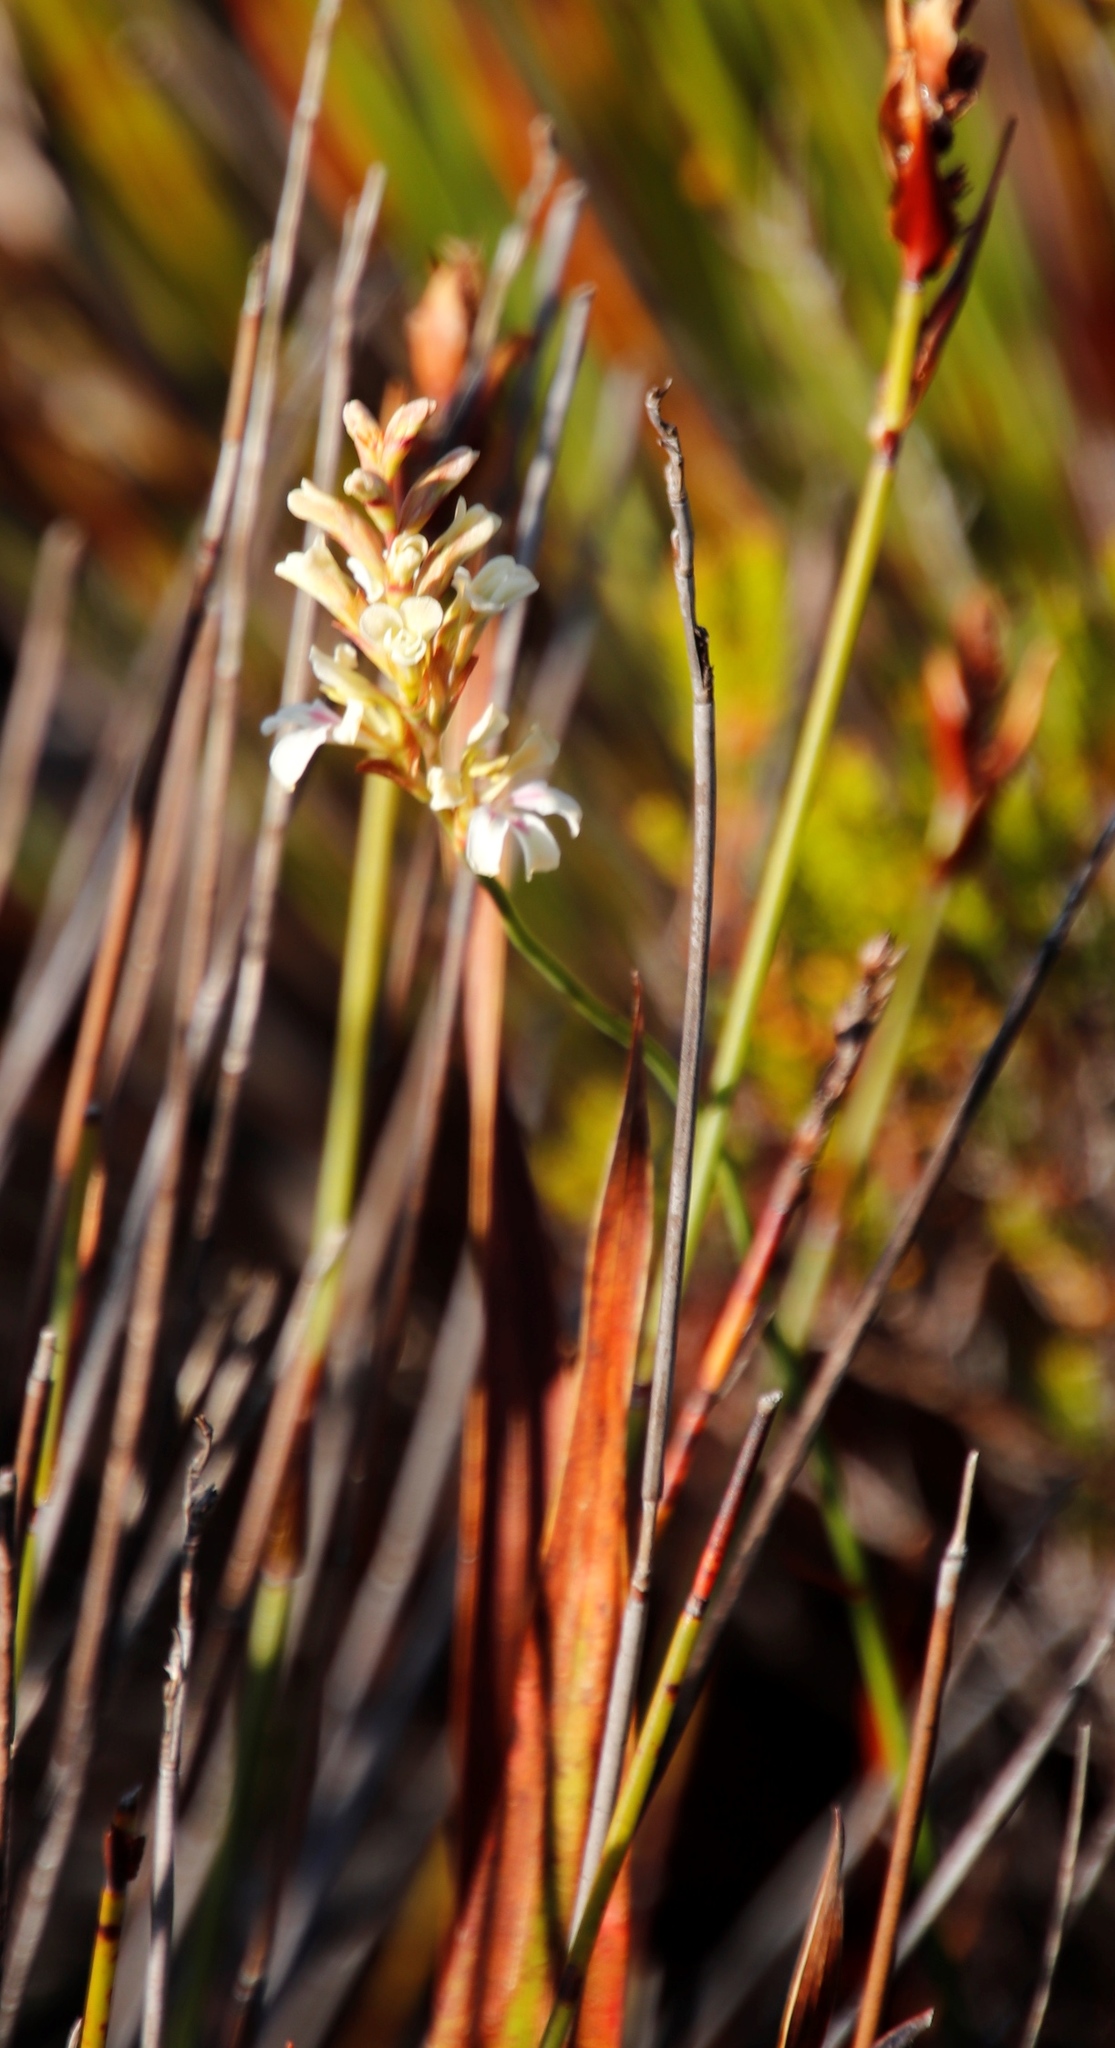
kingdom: Plantae
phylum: Tracheophyta
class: Liliopsida
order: Asparagales
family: Iridaceae
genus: Tritoniopsis
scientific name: Tritoniopsis unguicularis
